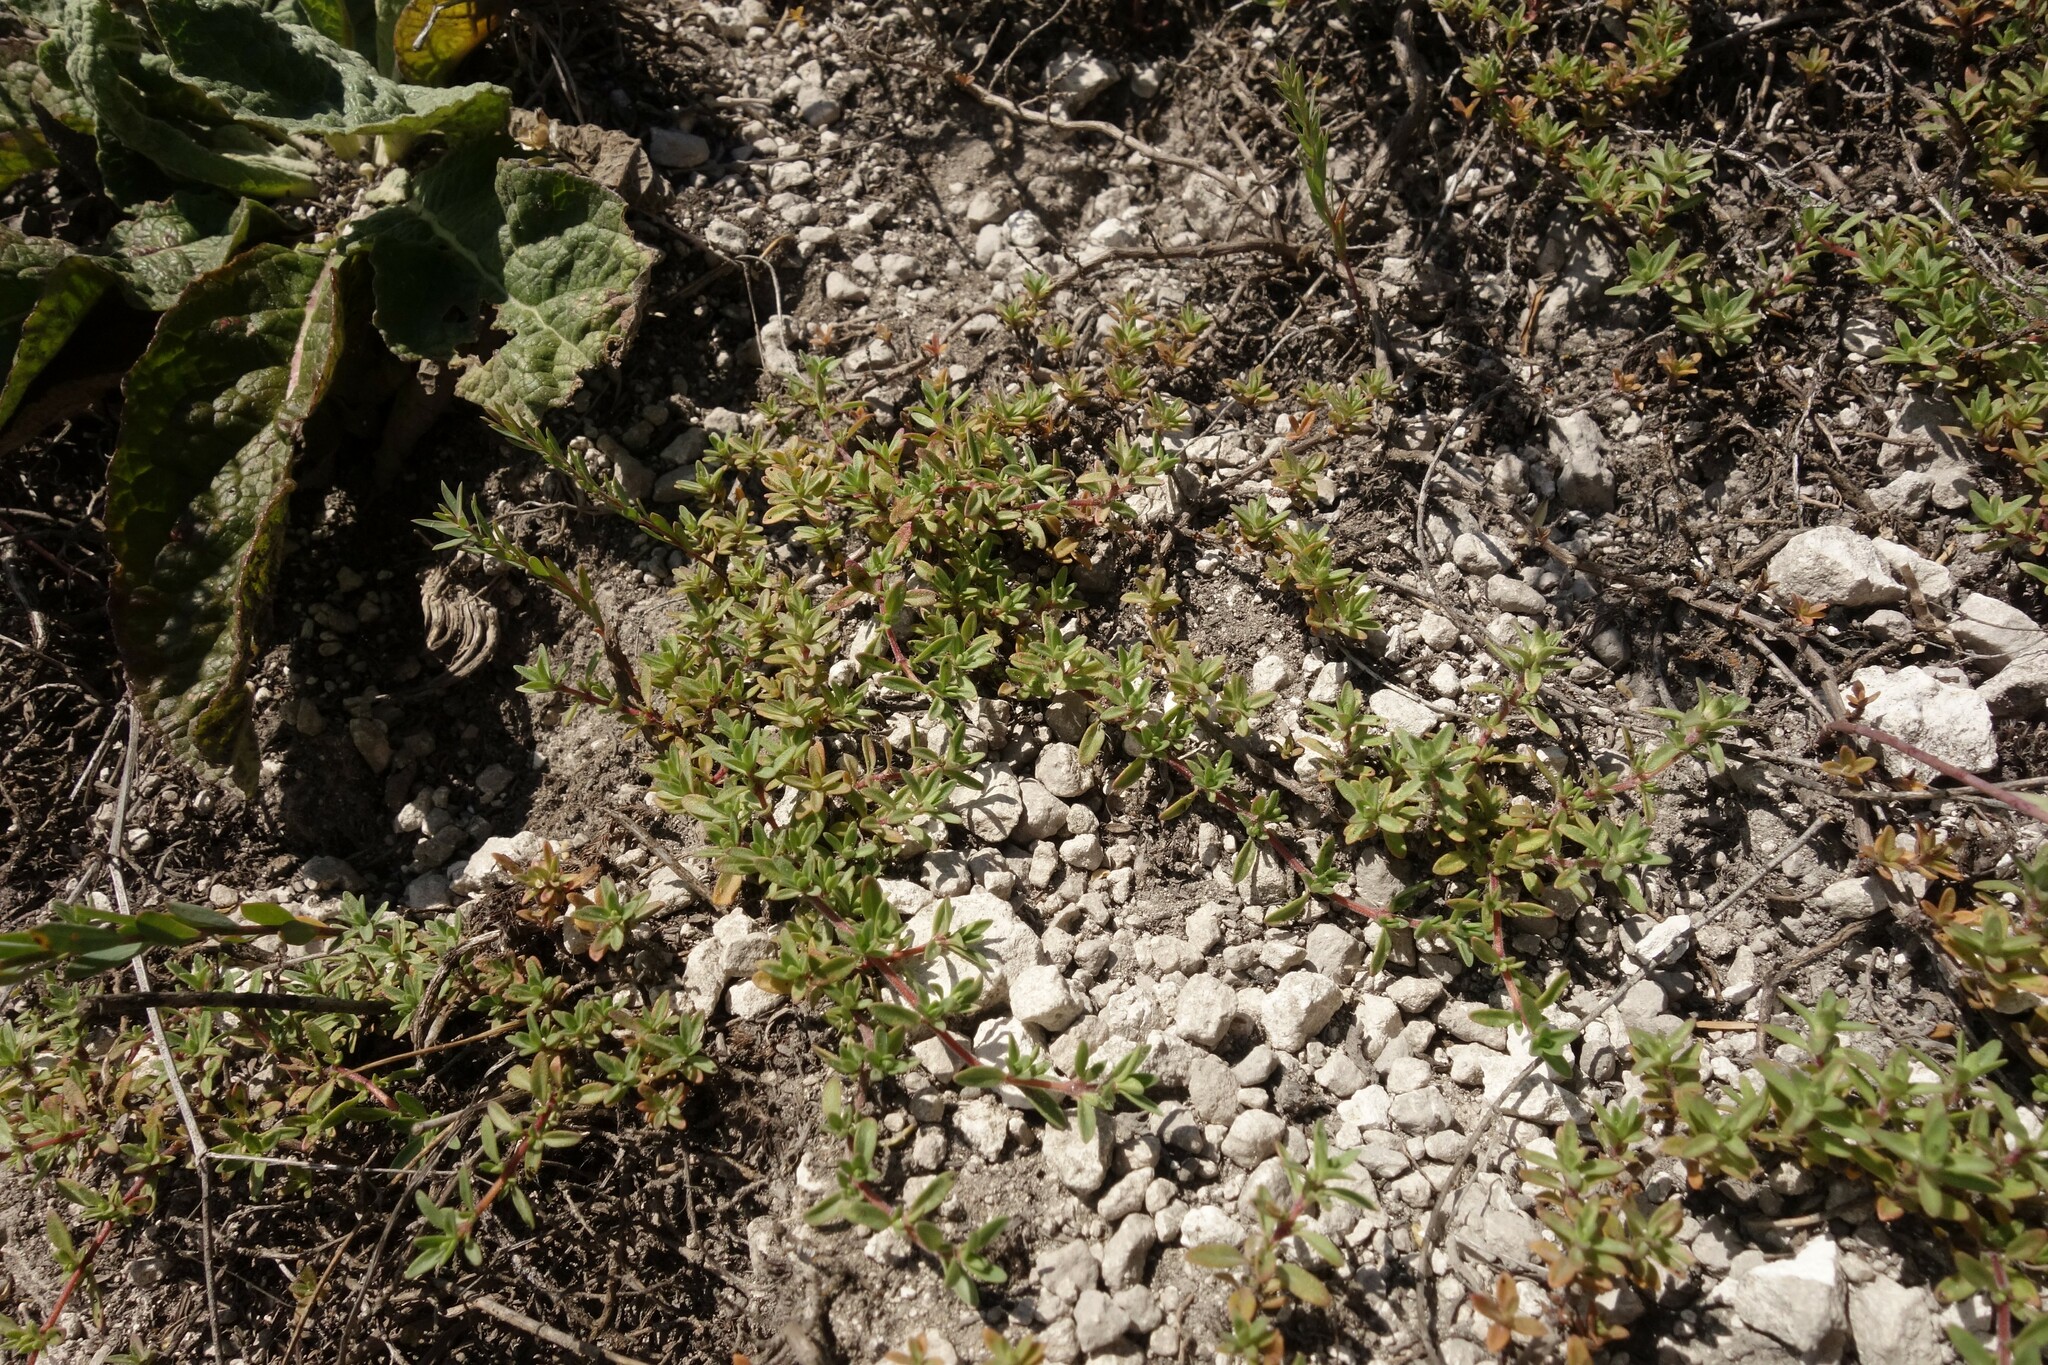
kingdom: Plantae
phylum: Tracheophyta
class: Magnoliopsida
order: Lamiales
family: Lamiaceae
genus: Thymus
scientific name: Thymus calcareus
